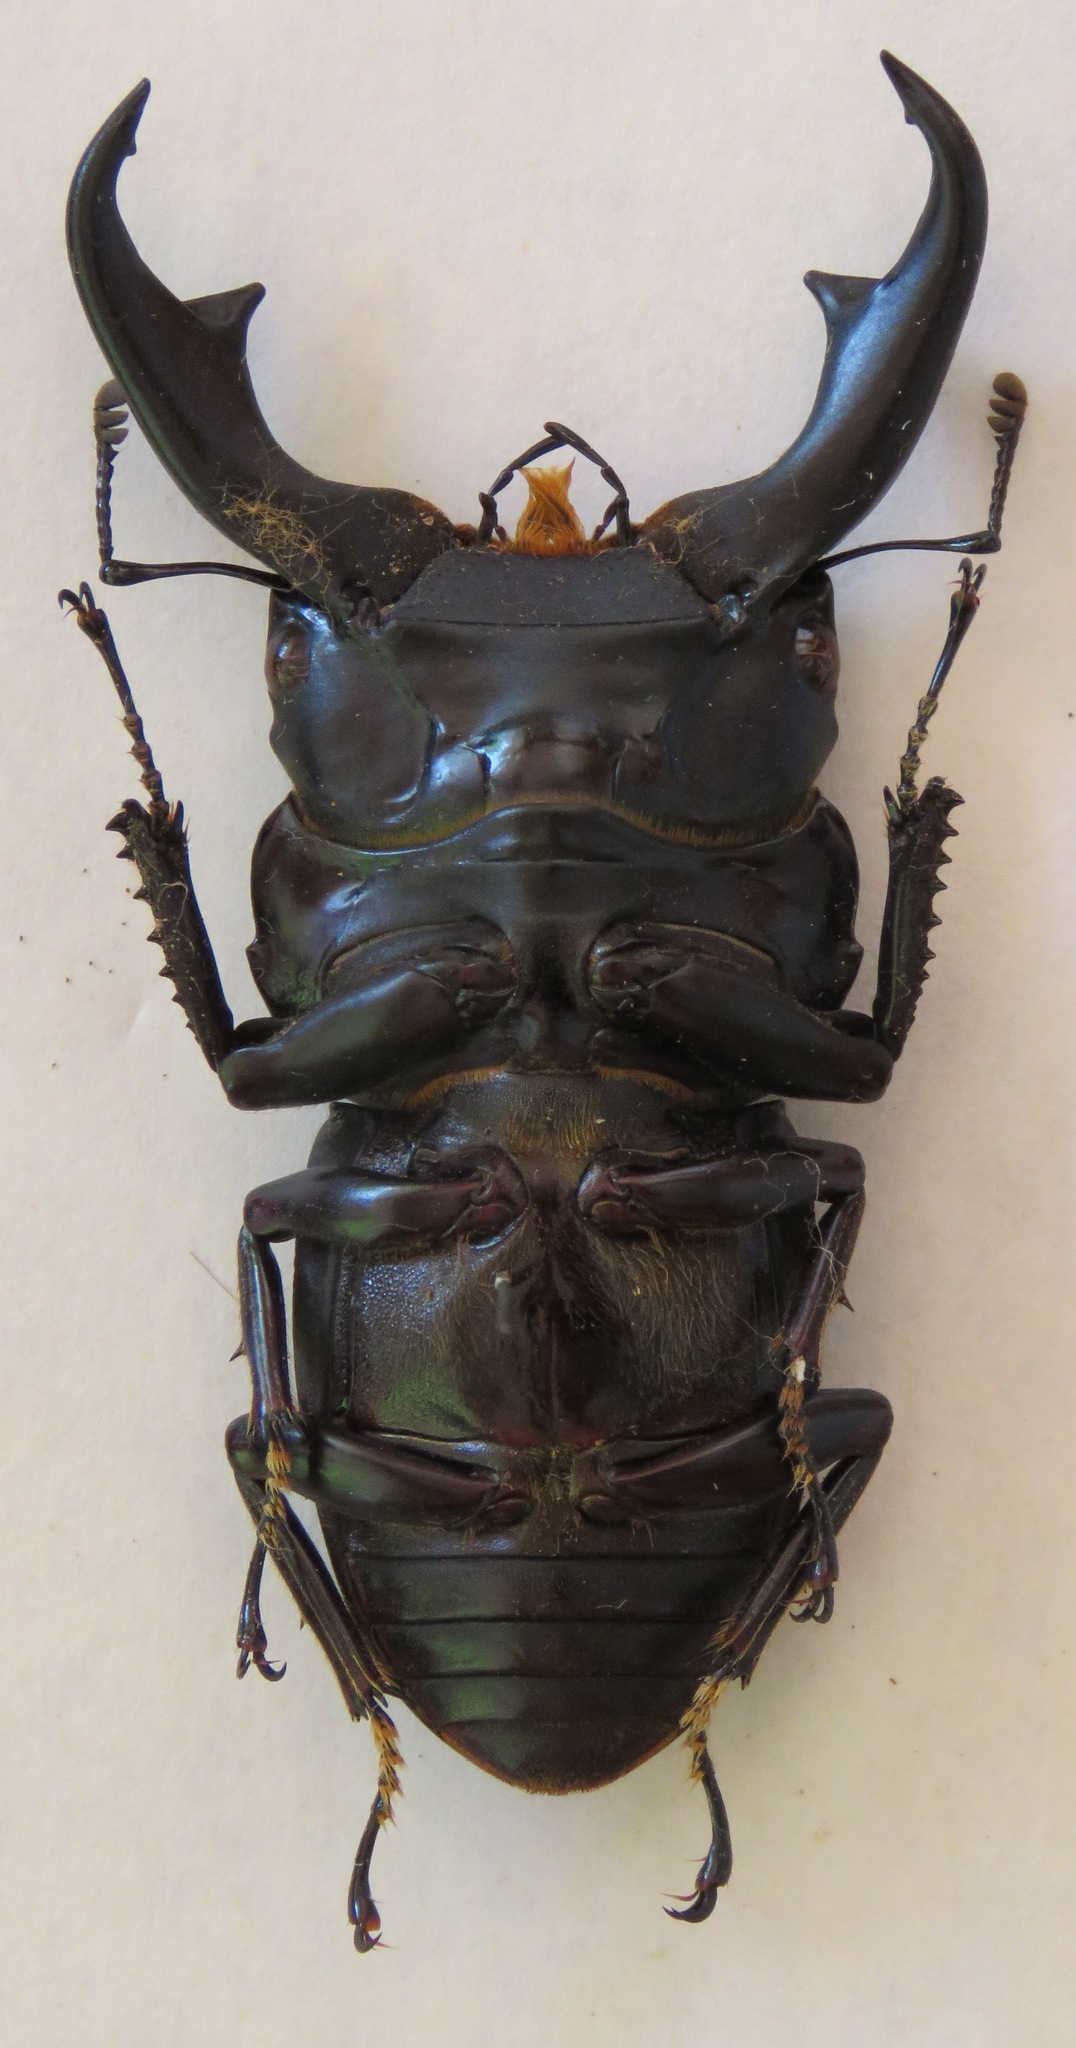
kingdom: Animalia
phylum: Arthropoda
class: Insecta
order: Coleoptera
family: Lucanidae
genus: Dorcus
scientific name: Dorcus ritsemae
